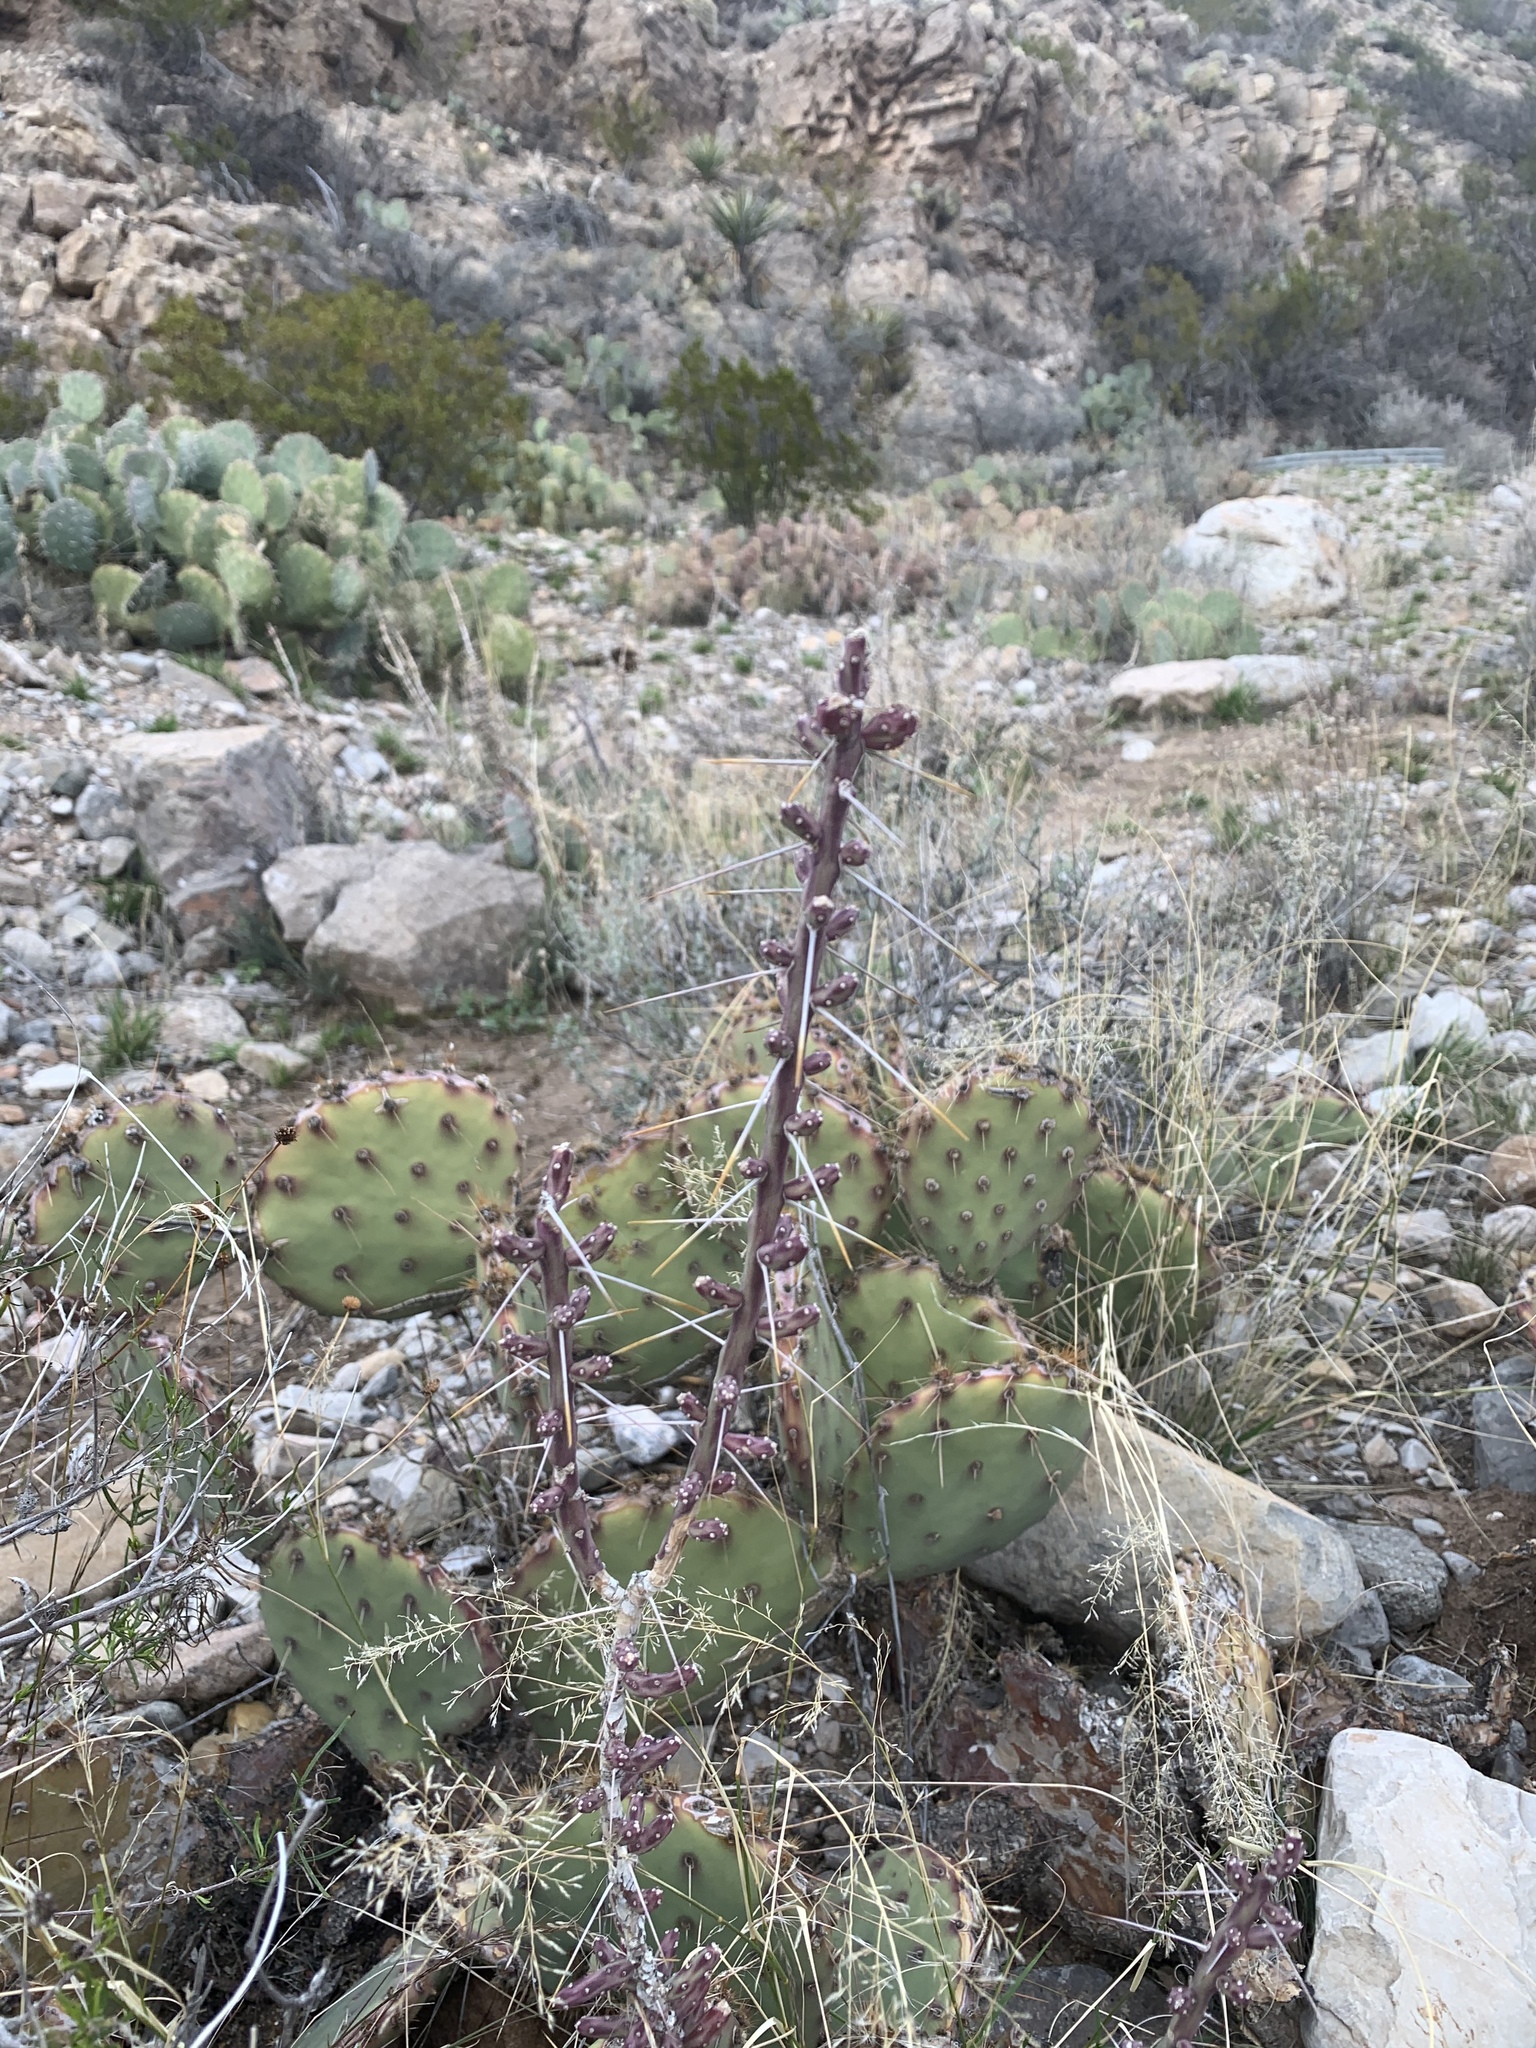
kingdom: Plantae
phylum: Tracheophyta
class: Magnoliopsida
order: Caryophyllales
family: Cactaceae
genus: Cylindropuntia
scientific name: Cylindropuntia leptocaulis
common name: Christmas cactus
